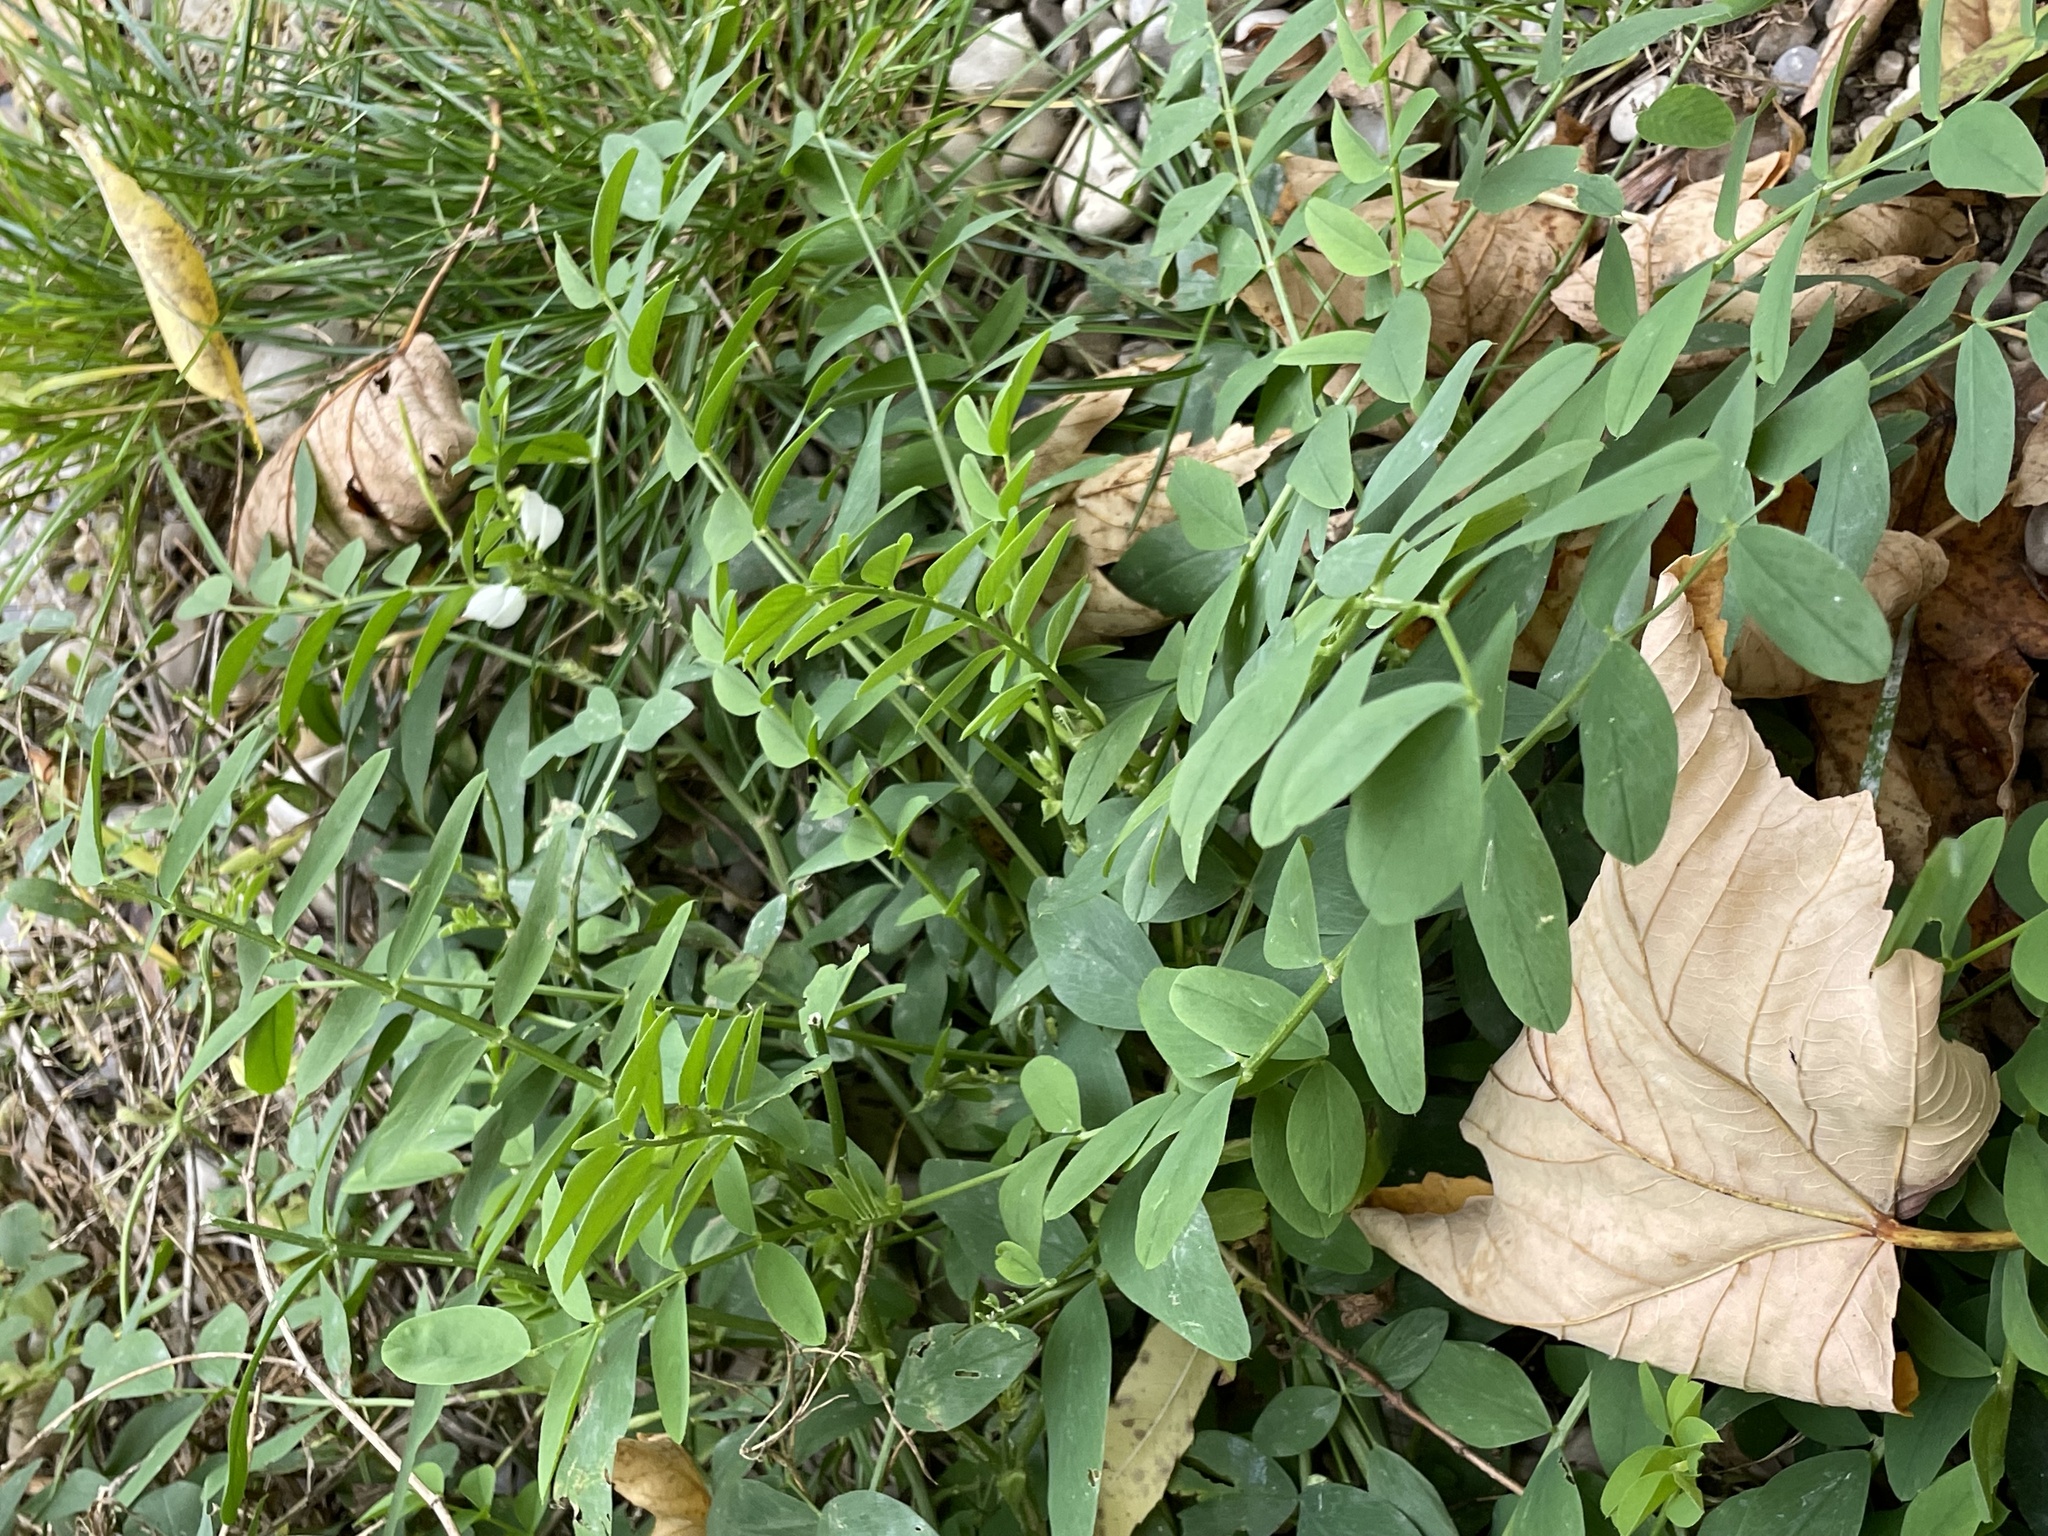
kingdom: Plantae
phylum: Tracheophyta
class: Magnoliopsida
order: Fabales
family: Fabaceae
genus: Galega
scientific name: Galega officinalis
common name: Goat's-rue
